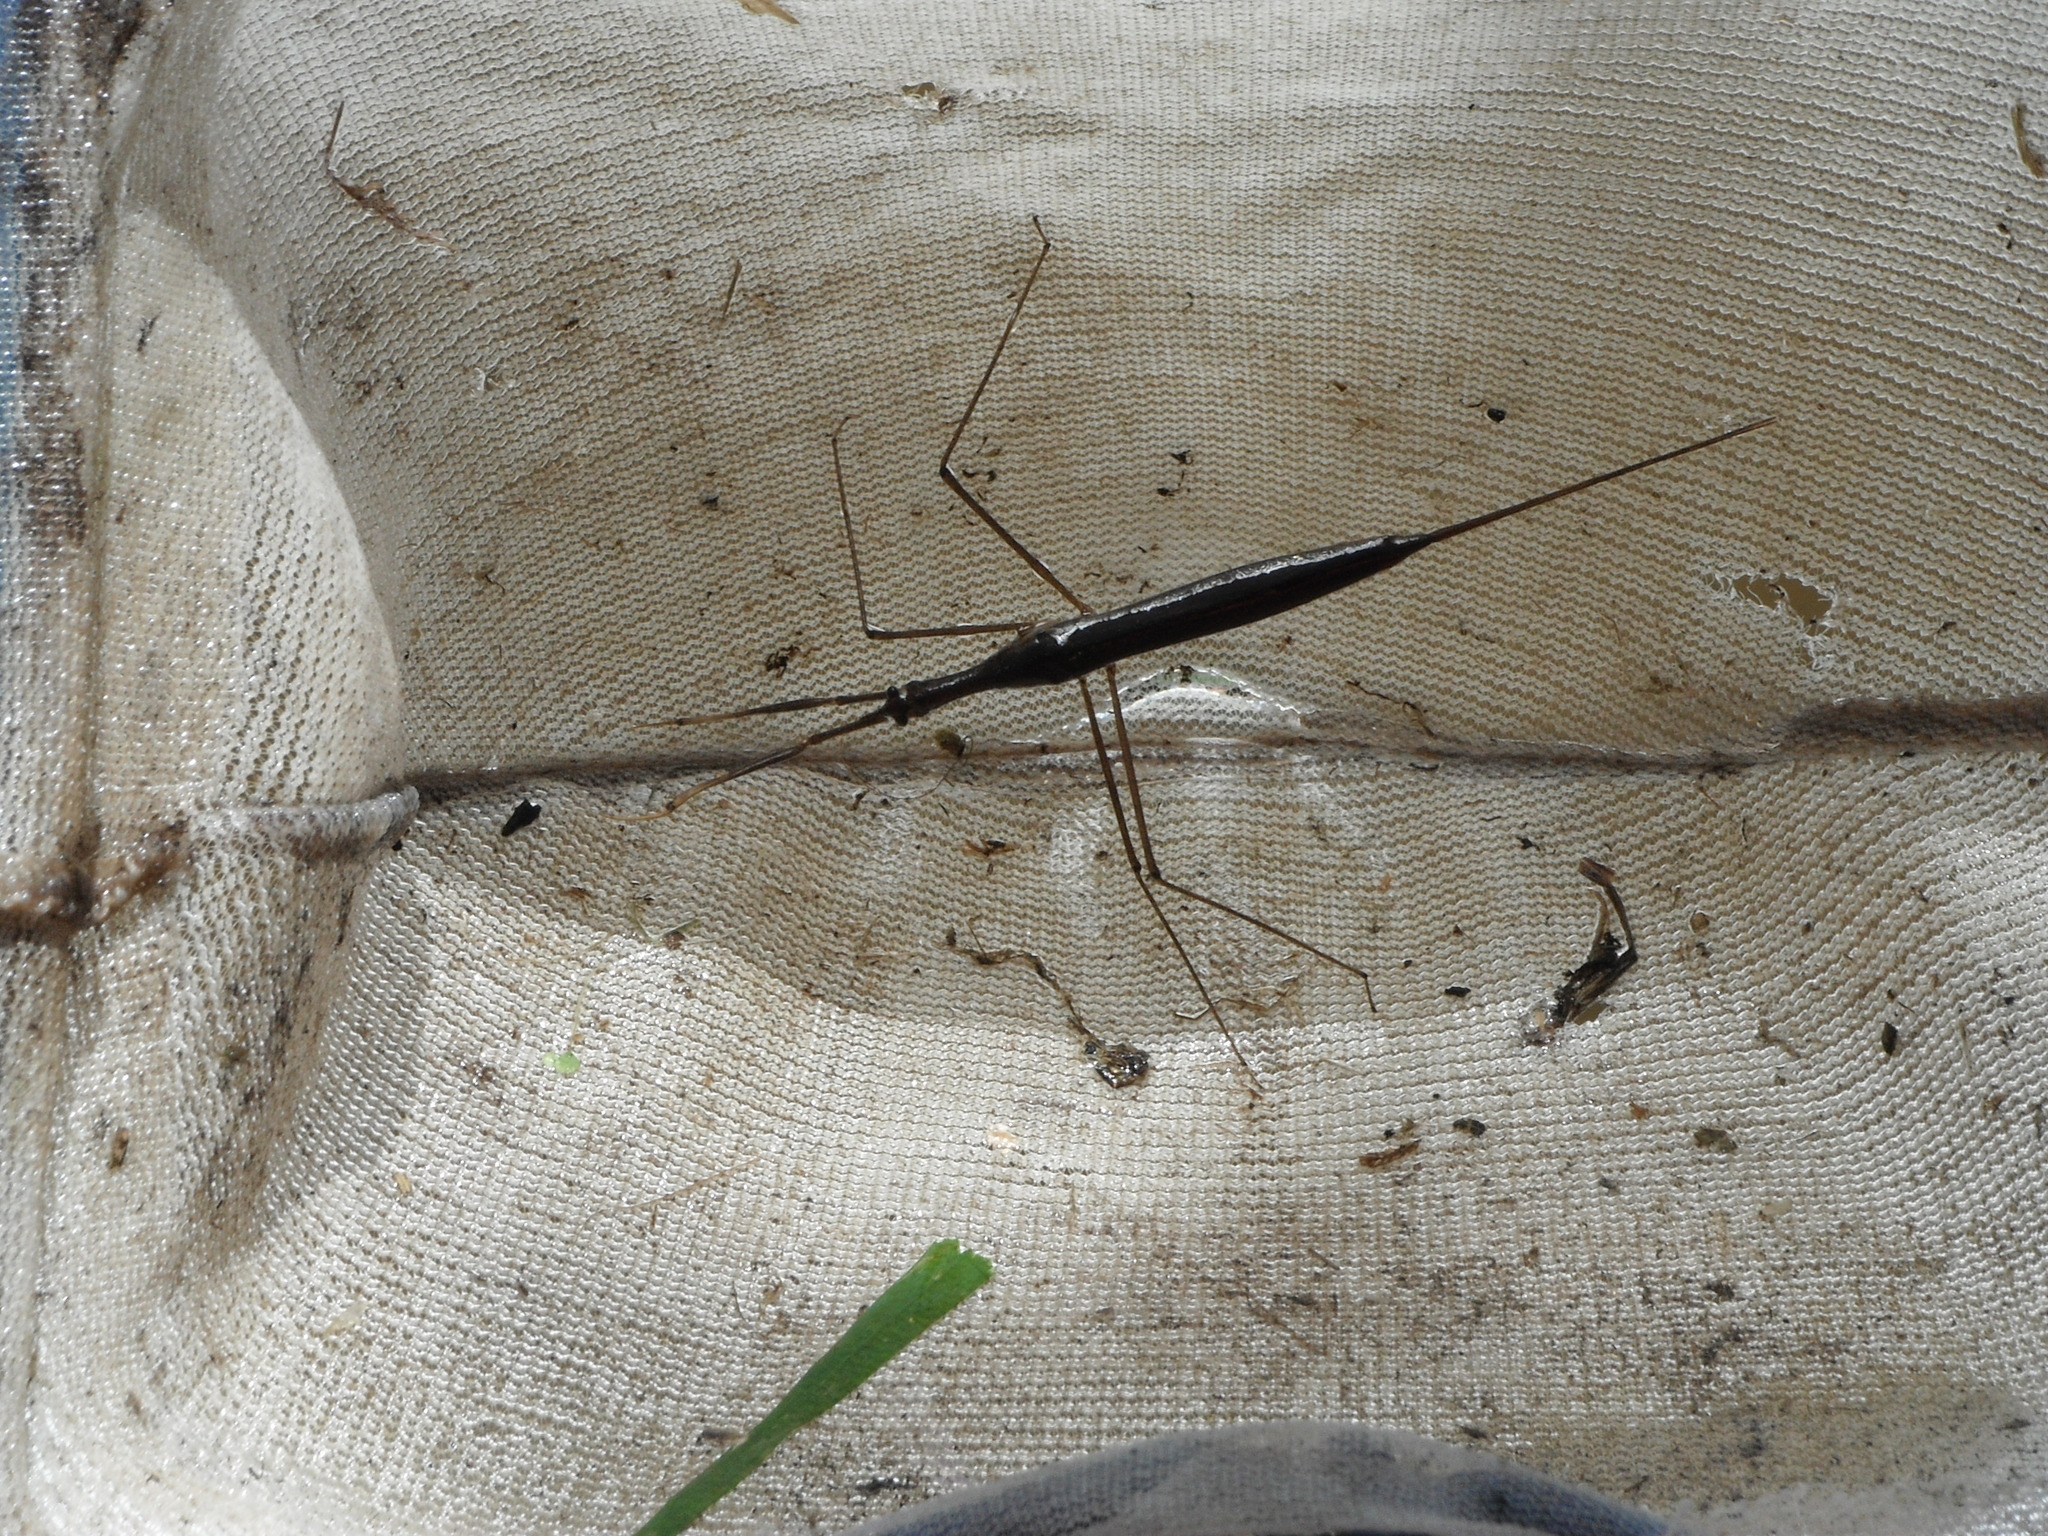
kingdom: Animalia
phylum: Arthropoda
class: Insecta
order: Hemiptera
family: Nepidae
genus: Ranatra
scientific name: Ranatra fusca
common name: Brown waterscorpion
